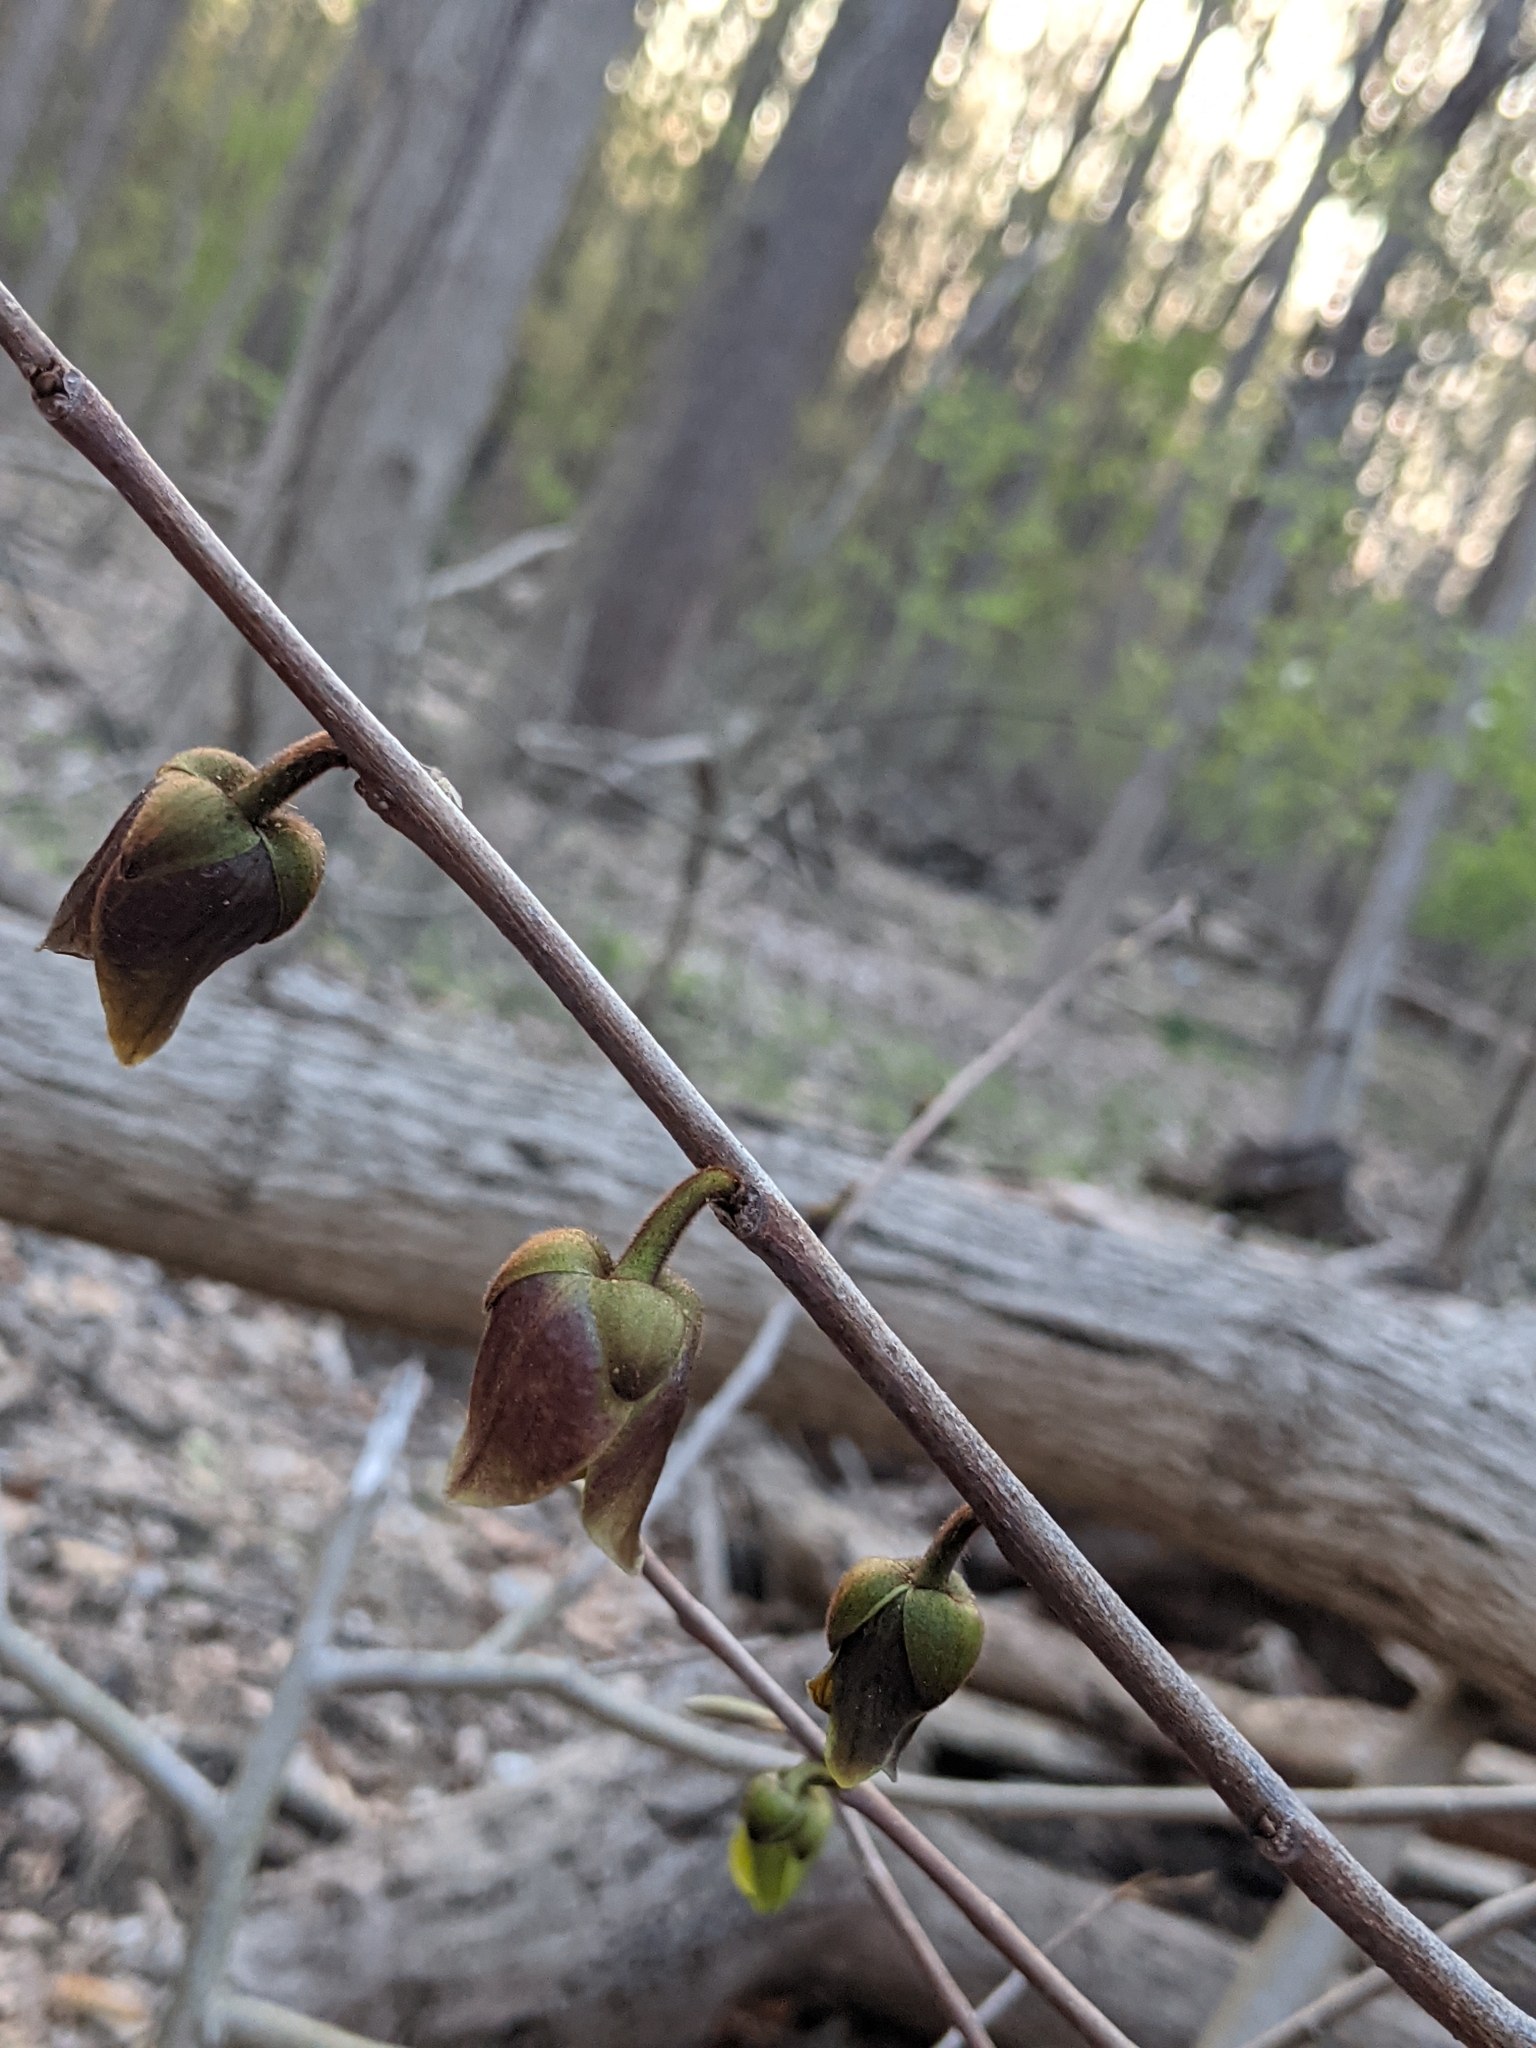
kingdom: Plantae
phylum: Tracheophyta
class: Magnoliopsida
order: Magnoliales
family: Annonaceae
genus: Asimina
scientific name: Asimina triloba
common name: Dog-banana
